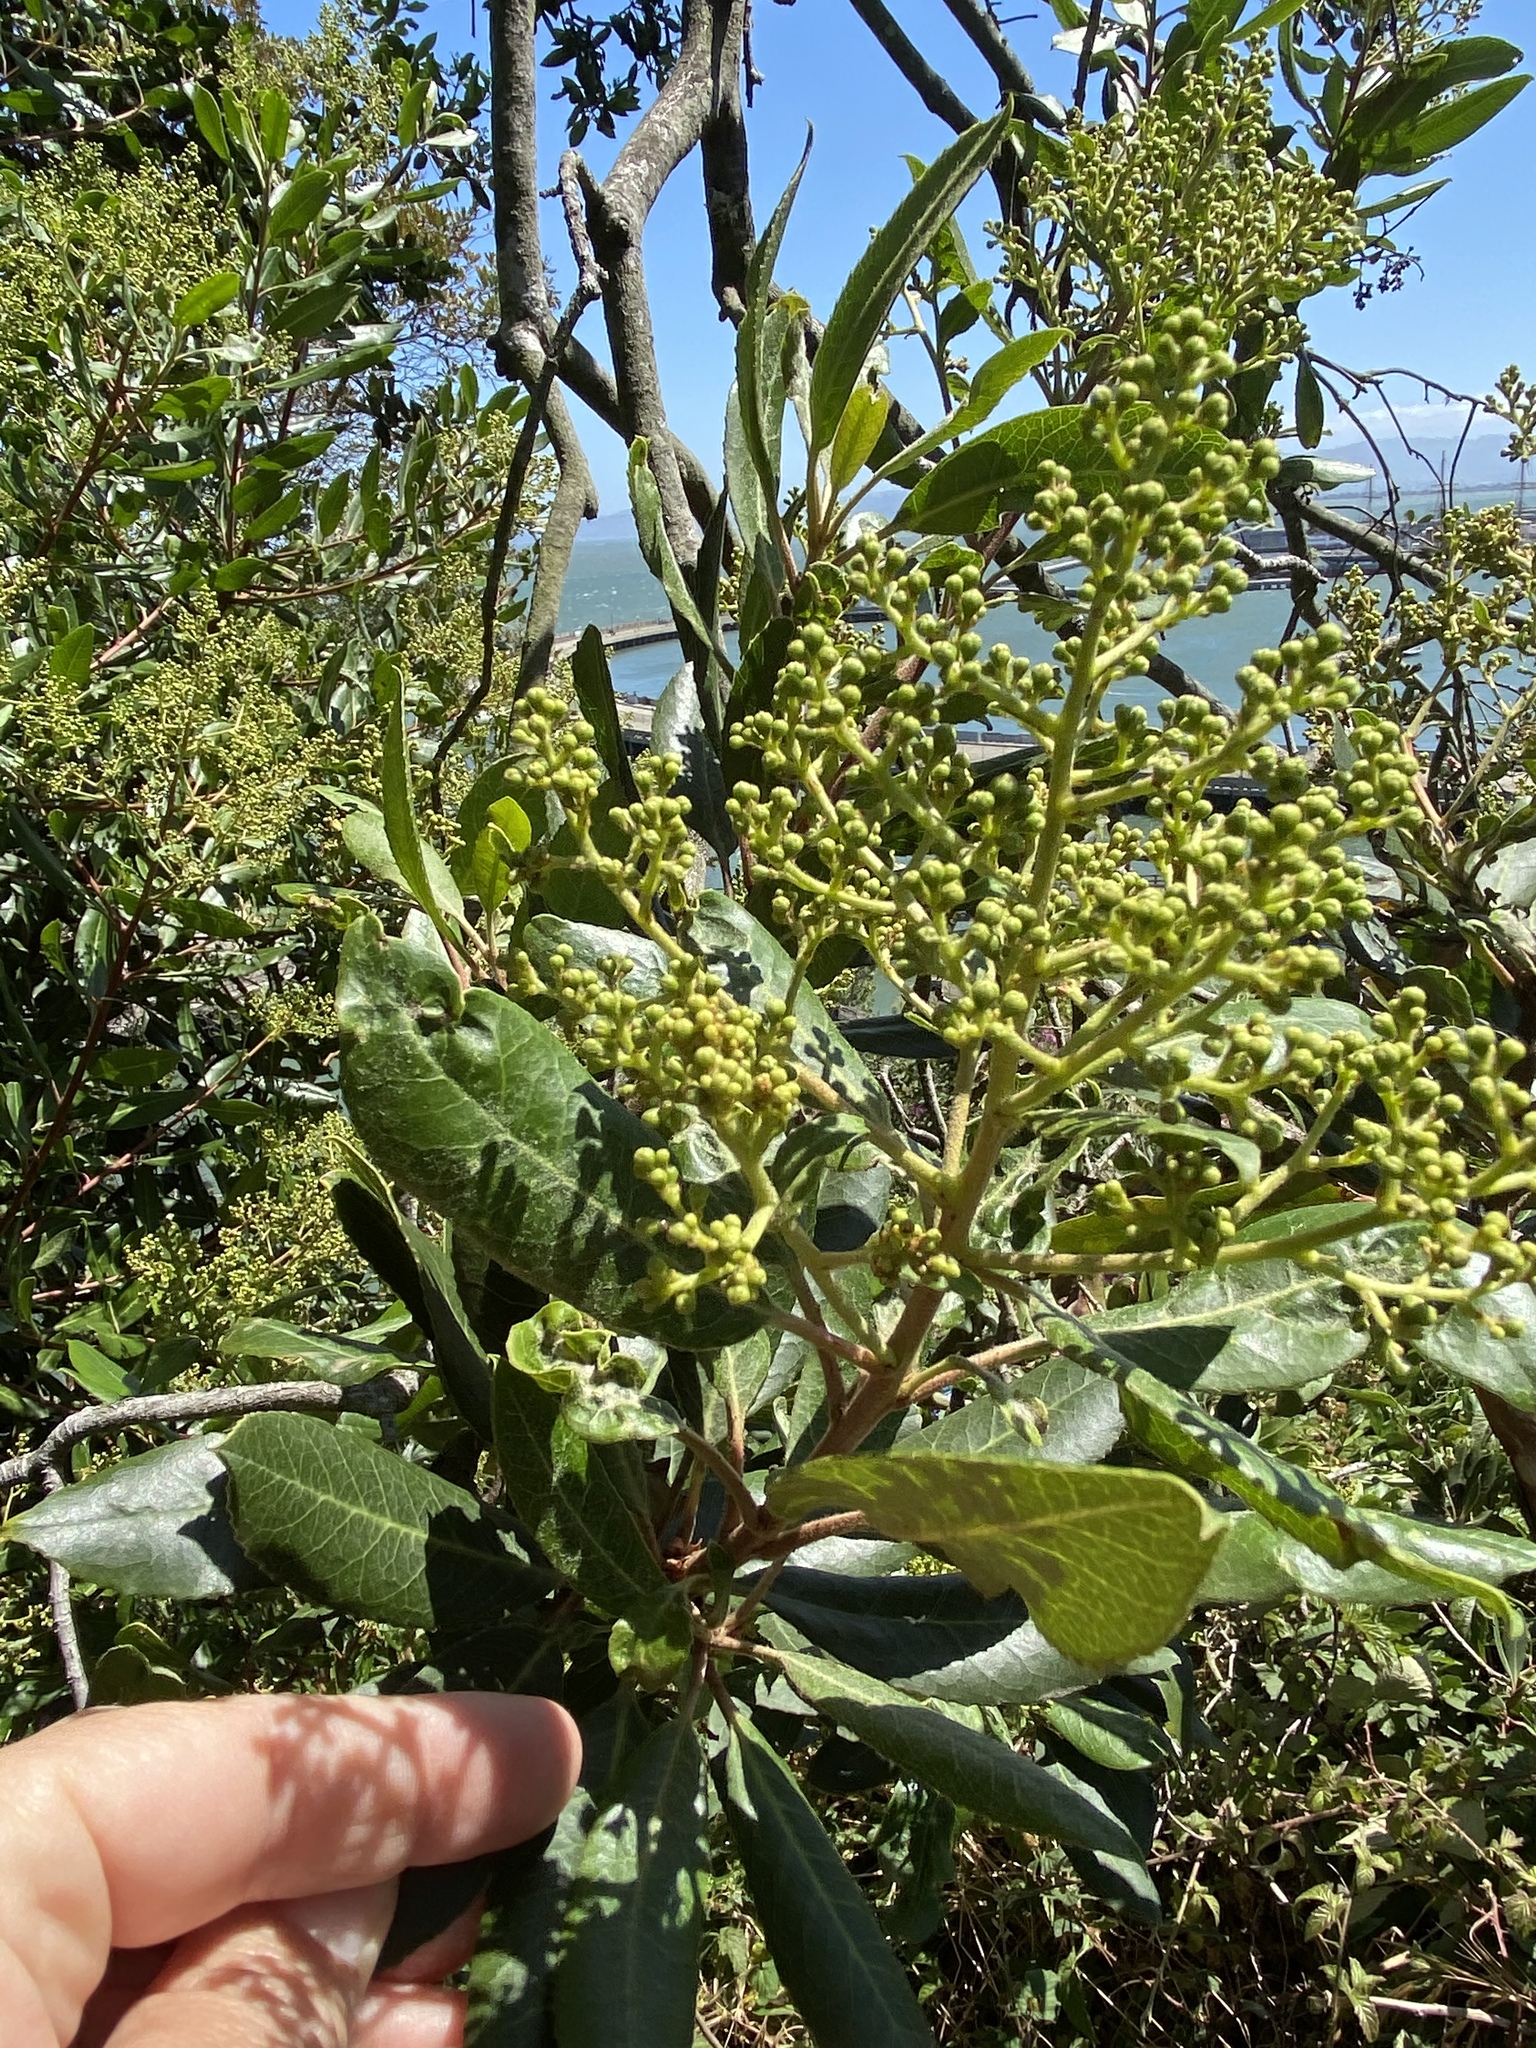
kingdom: Plantae
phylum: Tracheophyta
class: Magnoliopsida
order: Rosales
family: Rosaceae
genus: Heteromeles
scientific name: Heteromeles arbutifolia
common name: California-holly
